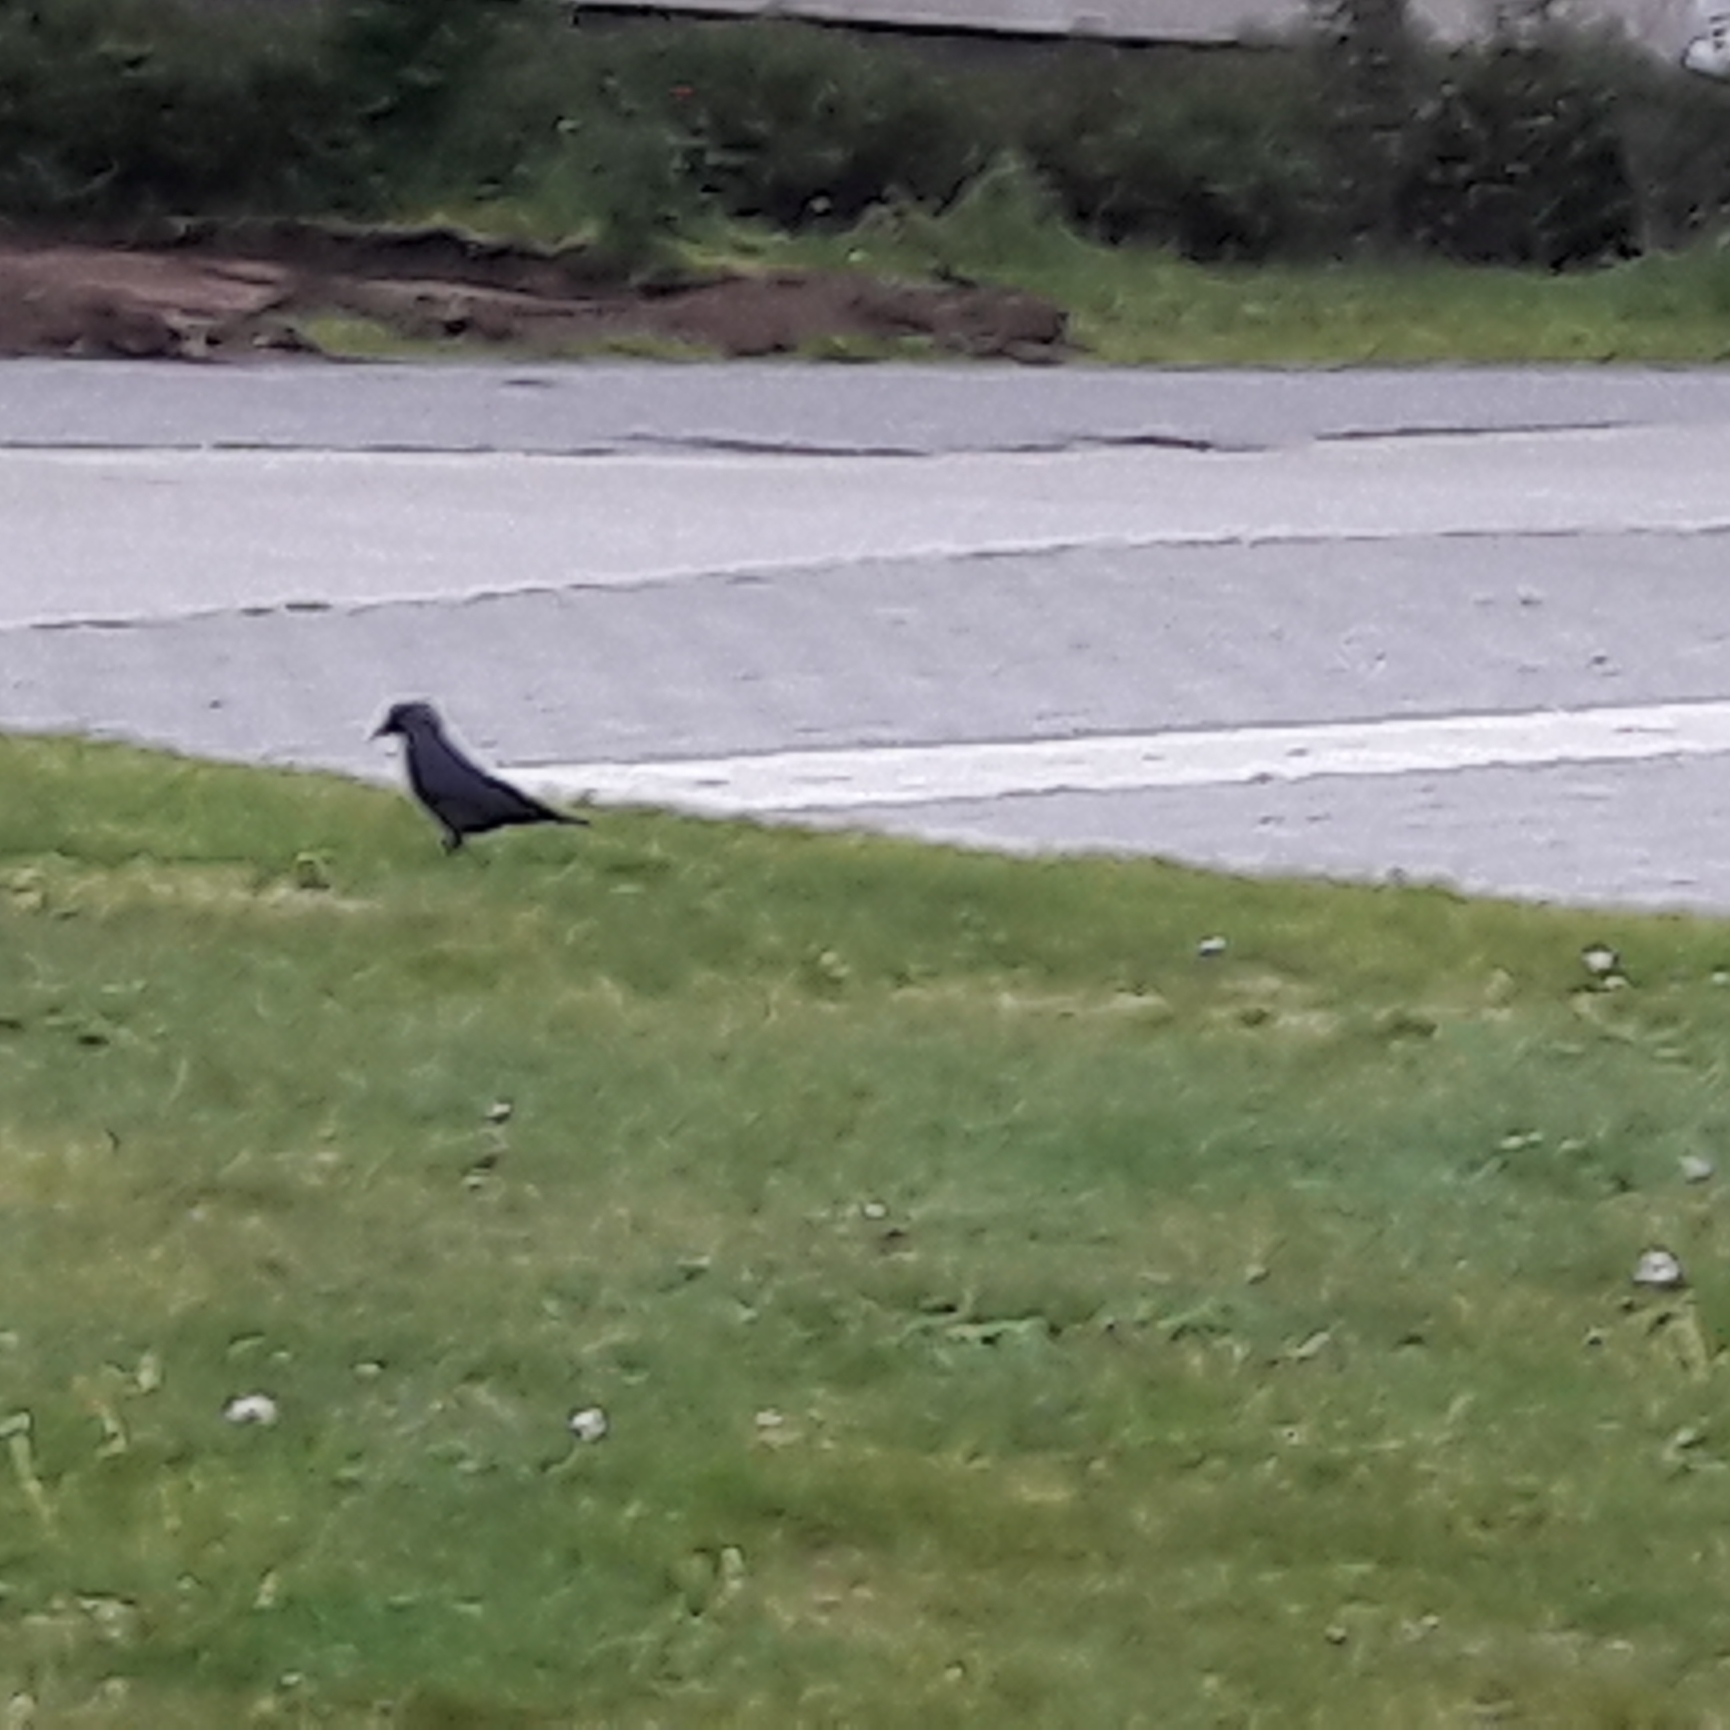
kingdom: Animalia
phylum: Chordata
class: Aves
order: Passeriformes
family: Corvidae
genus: Coloeus
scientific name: Coloeus monedula
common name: Western jackdaw
